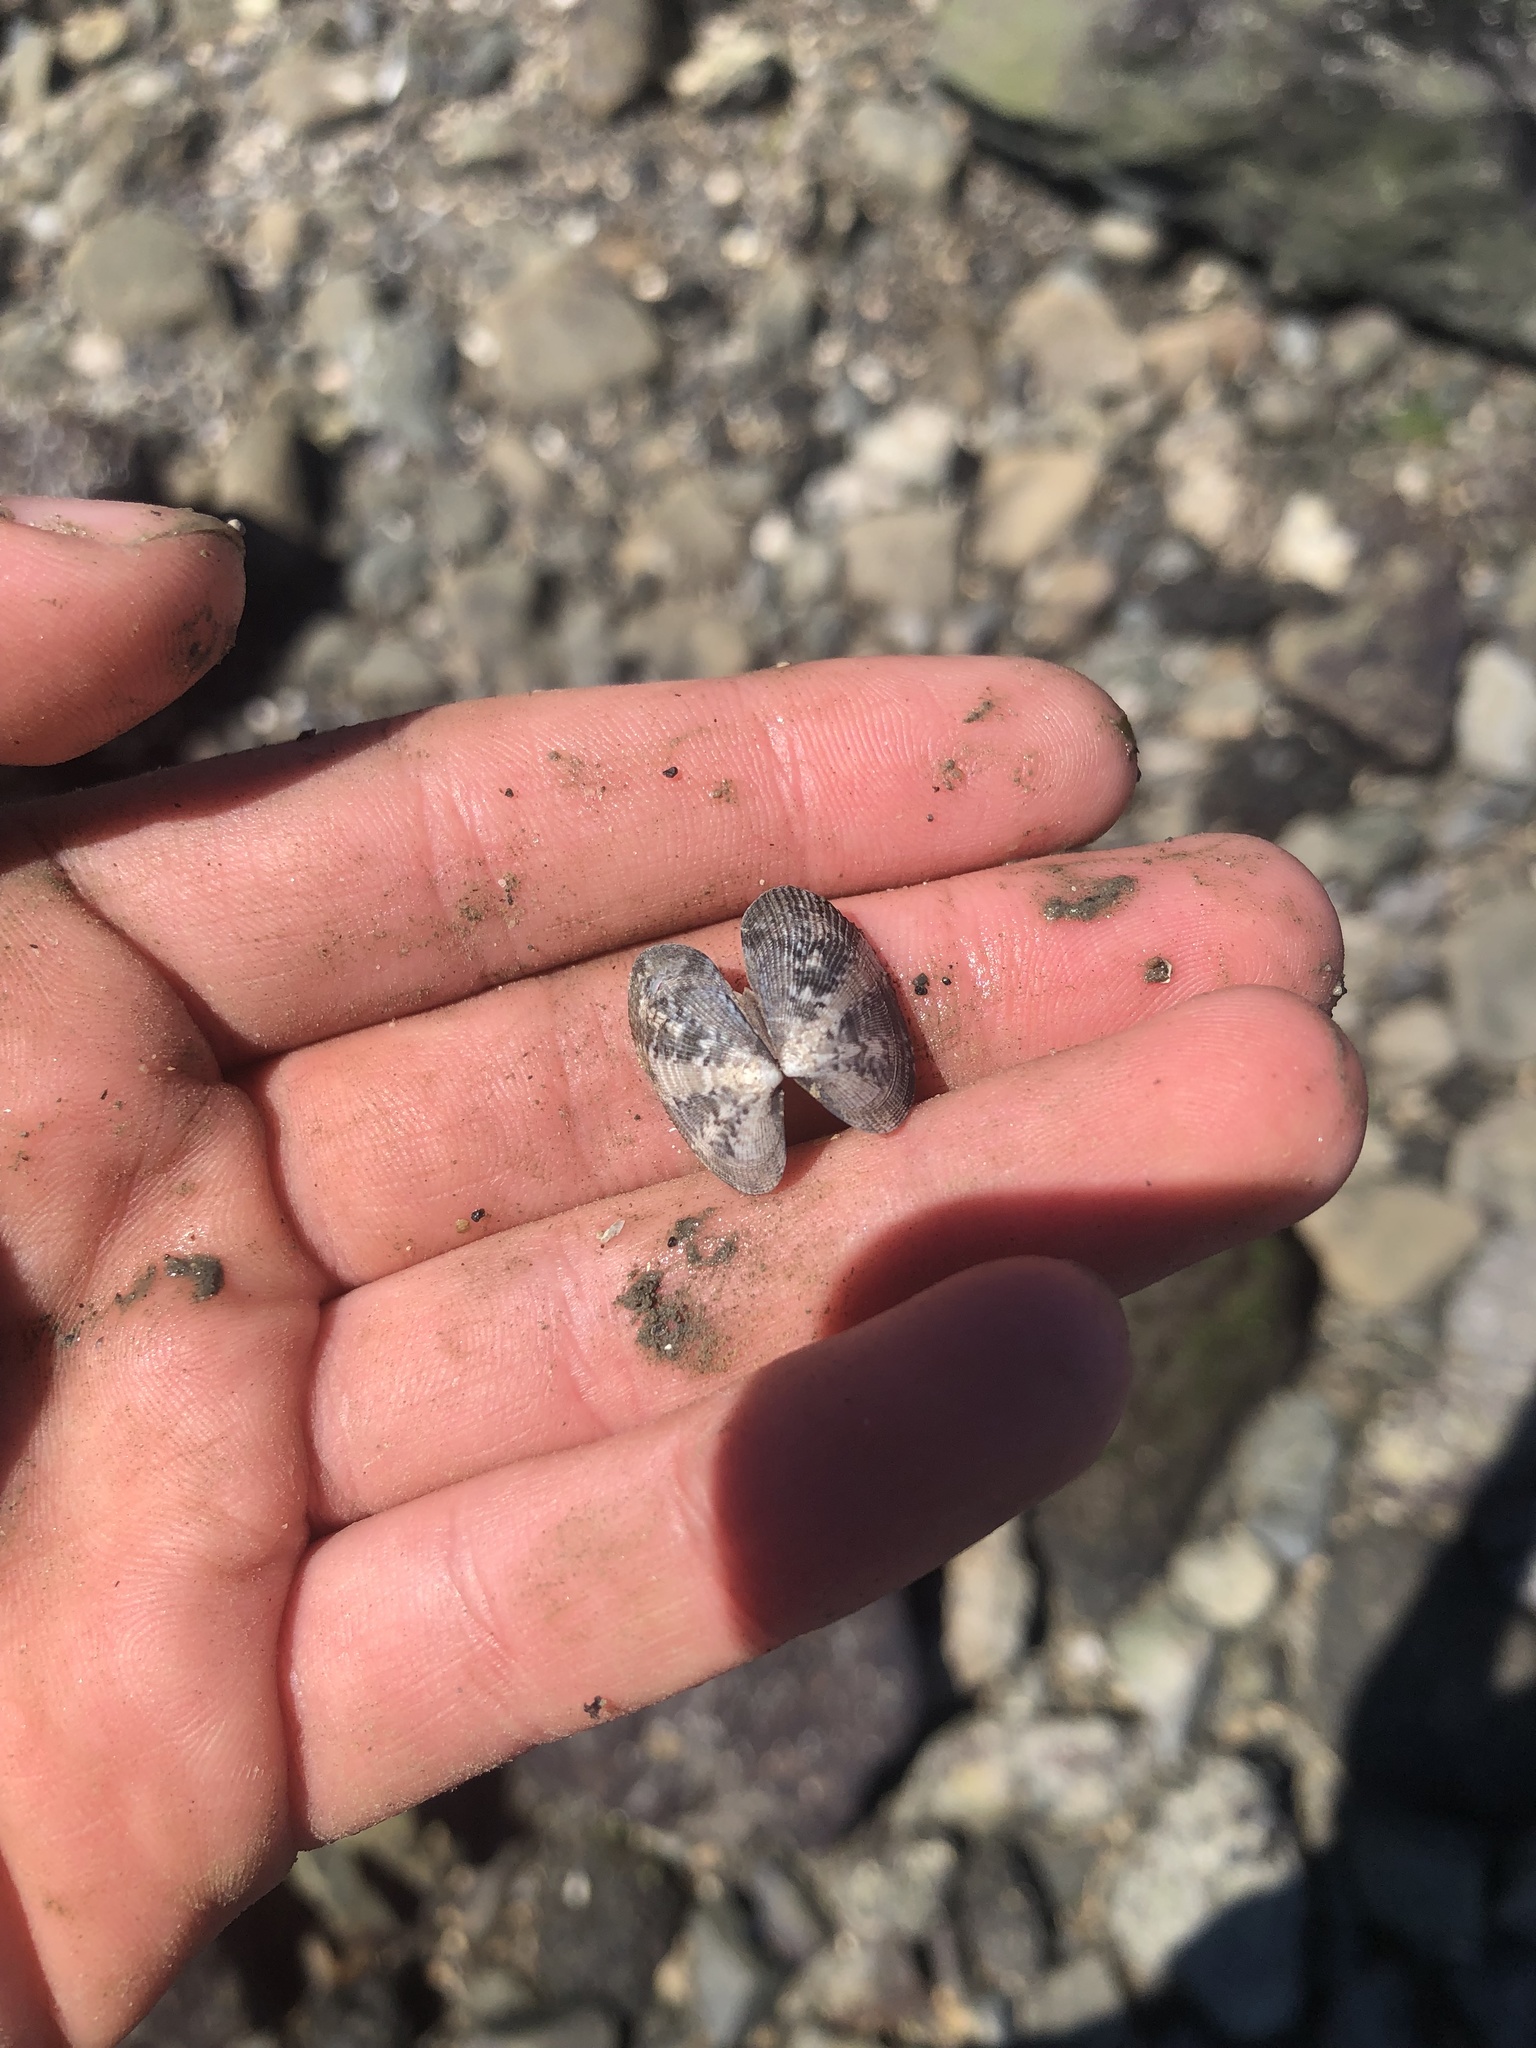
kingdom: Animalia
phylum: Mollusca
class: Bivalvia
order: Venerida
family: Veneridae
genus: Ruditapes
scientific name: Ruditapes philippinarum
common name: Manila clam
